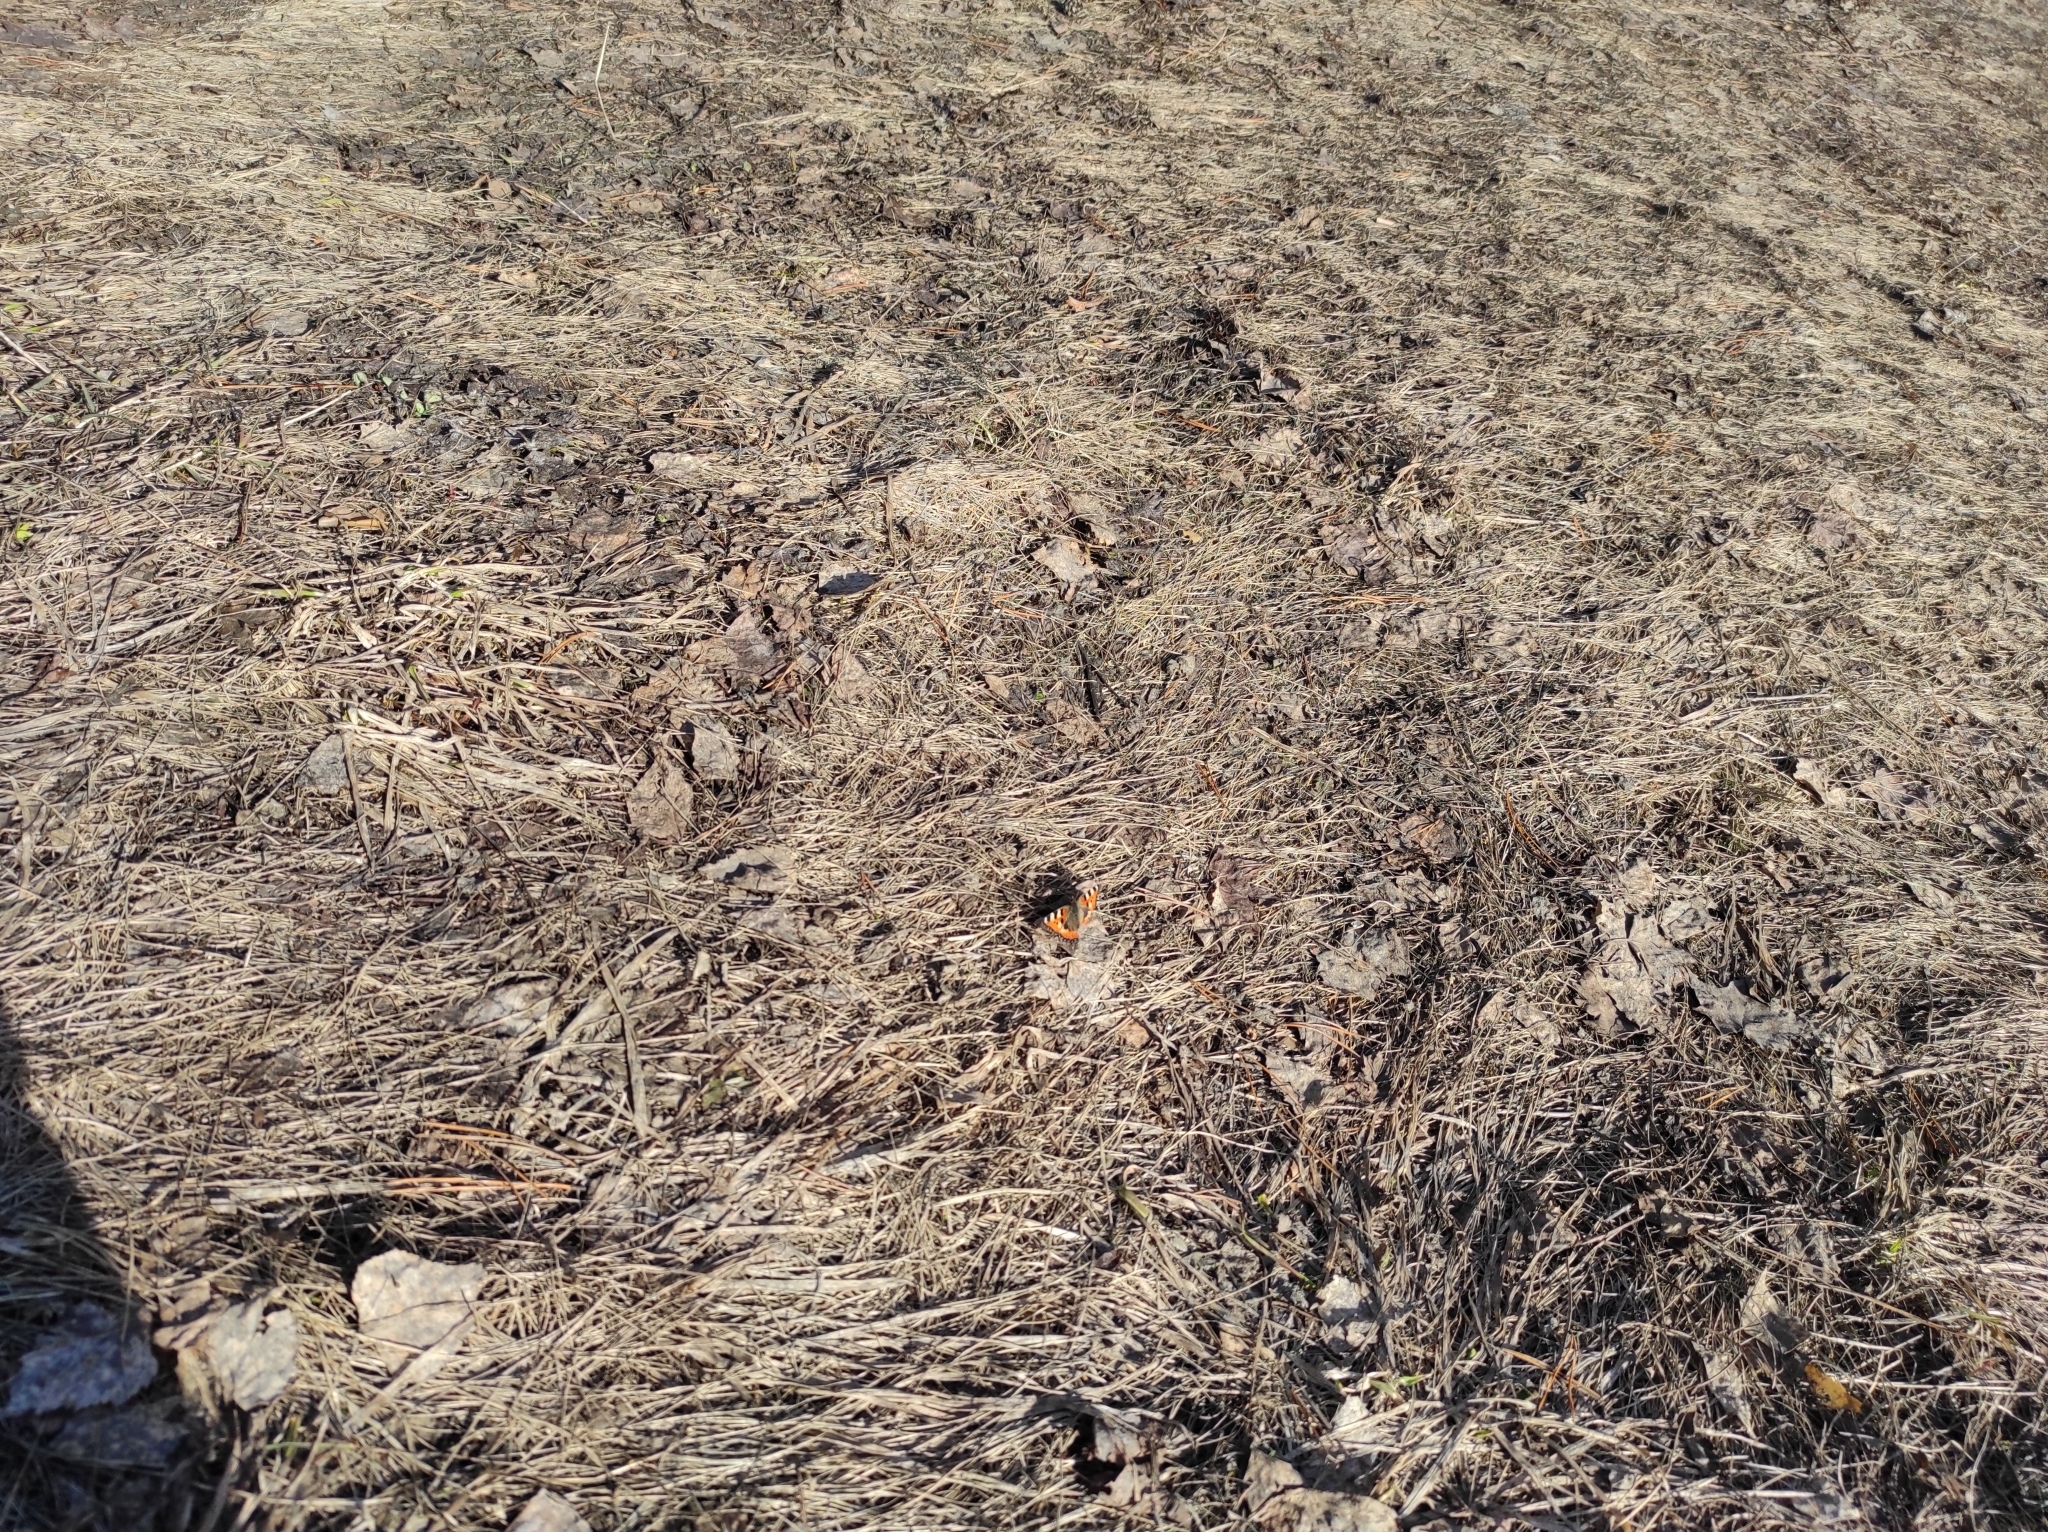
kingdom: Animalia
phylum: Arthropoda
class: Insecta
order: Lepidoptera
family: Nymphalidae
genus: Aglais
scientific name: Aglais urticae
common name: Small tortoiseshell
